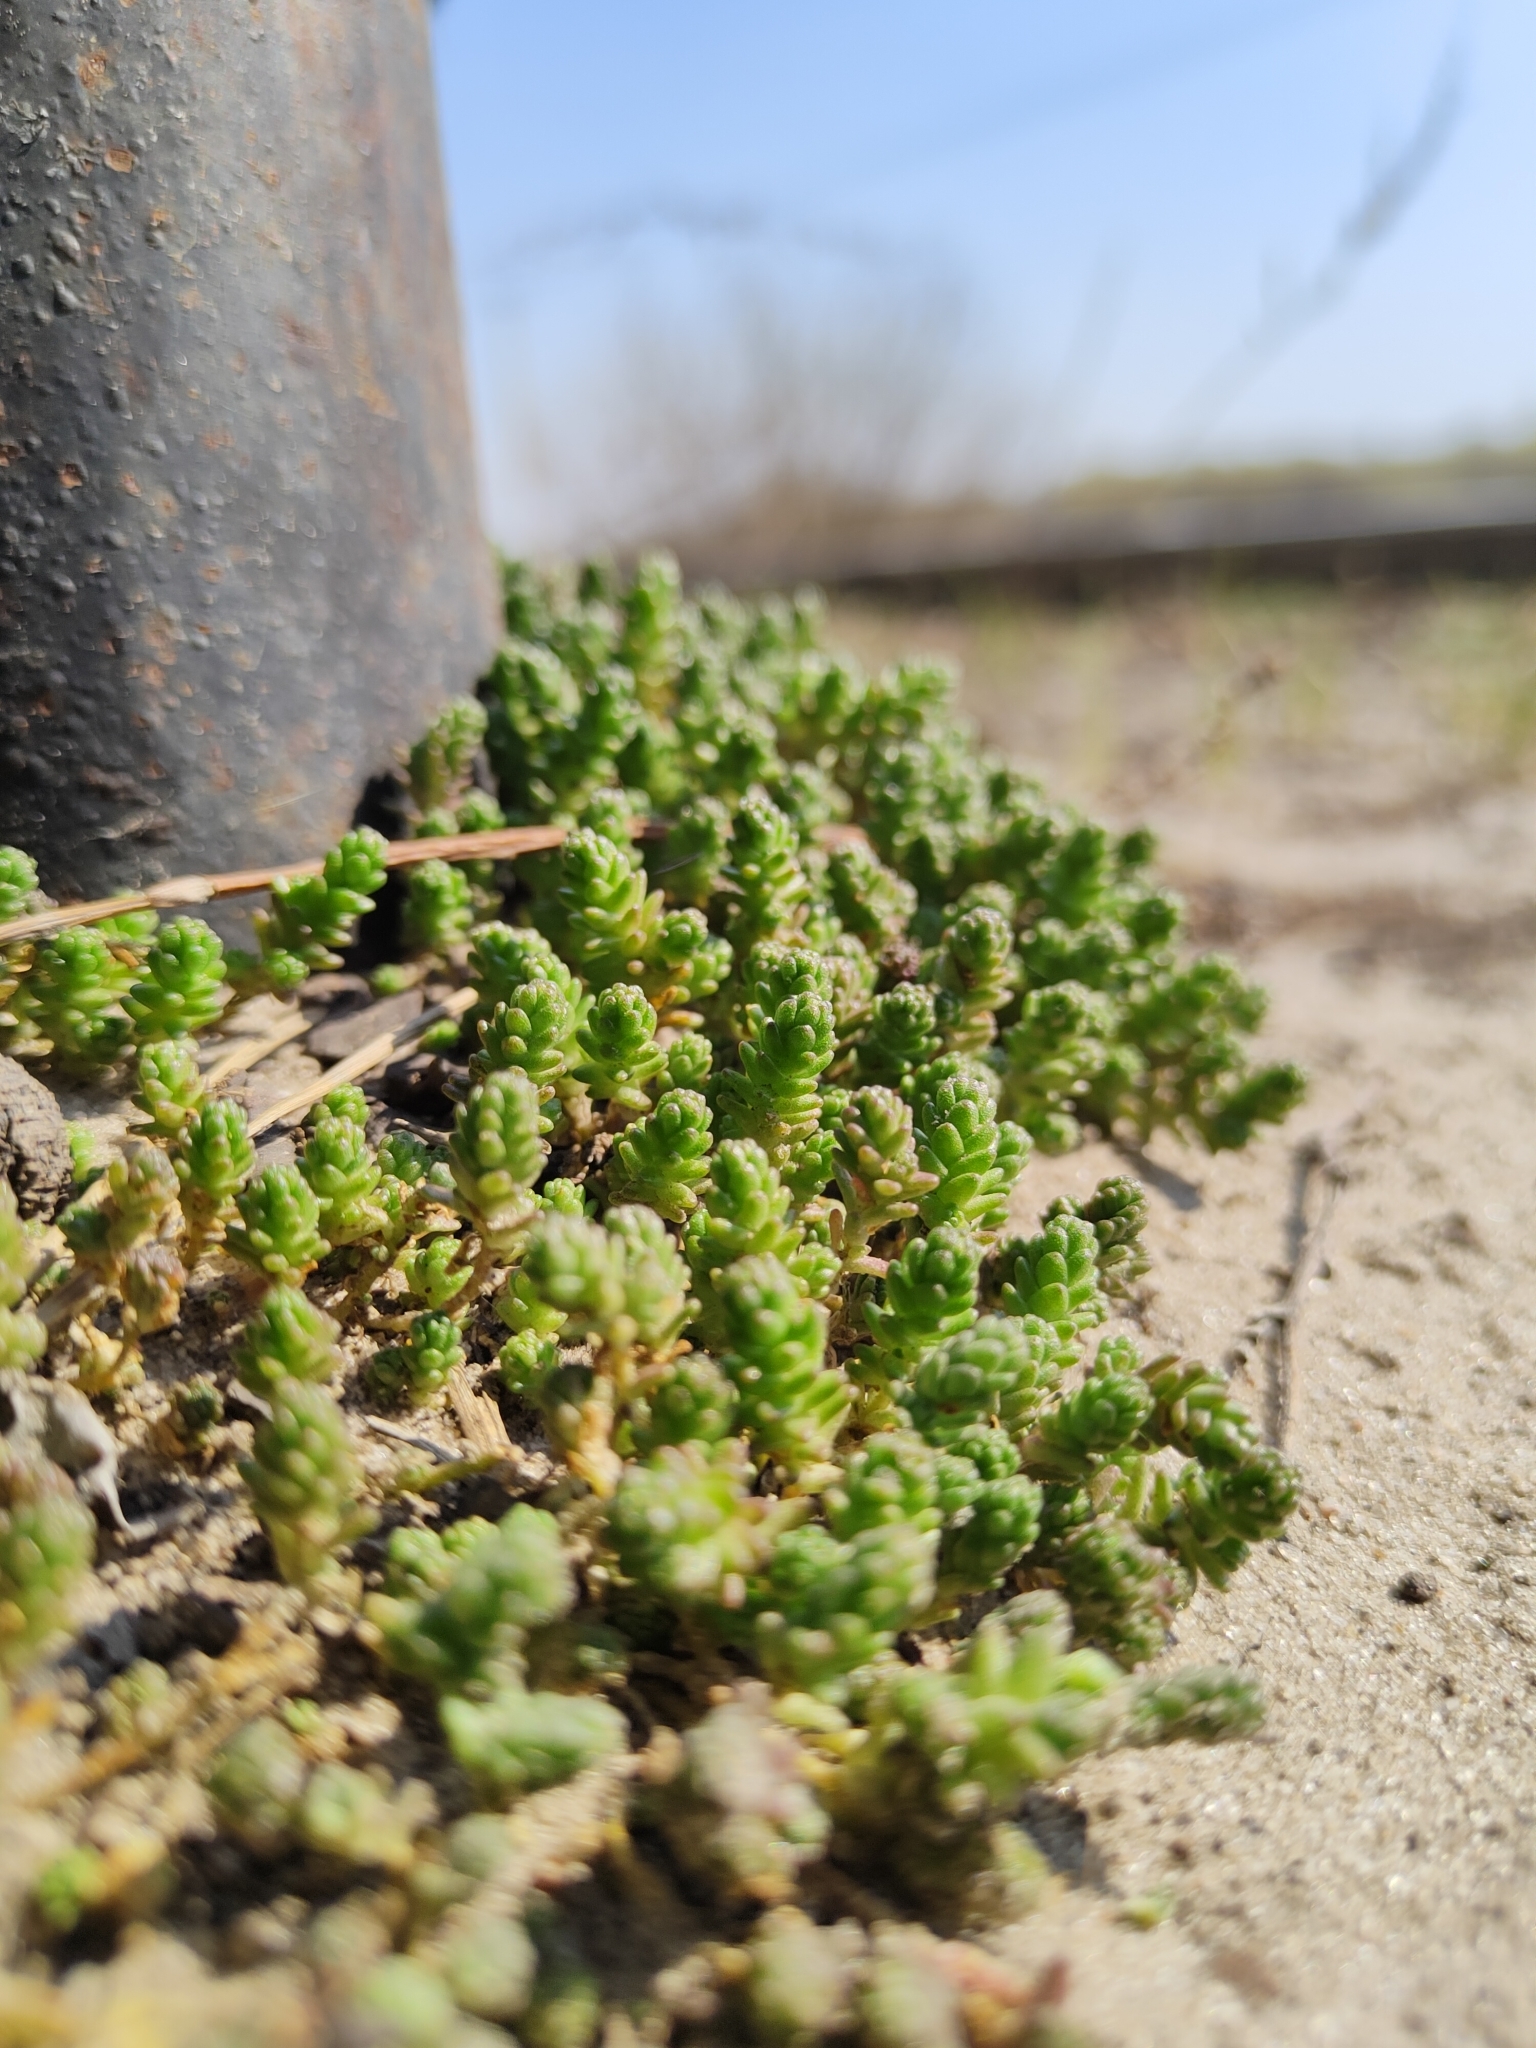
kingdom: Plantae
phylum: Tracheophyta
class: Magnoliopsida
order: Saxifragales
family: Crassulaceae
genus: Sedum
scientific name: Sedum acre
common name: Biting stonecrop
